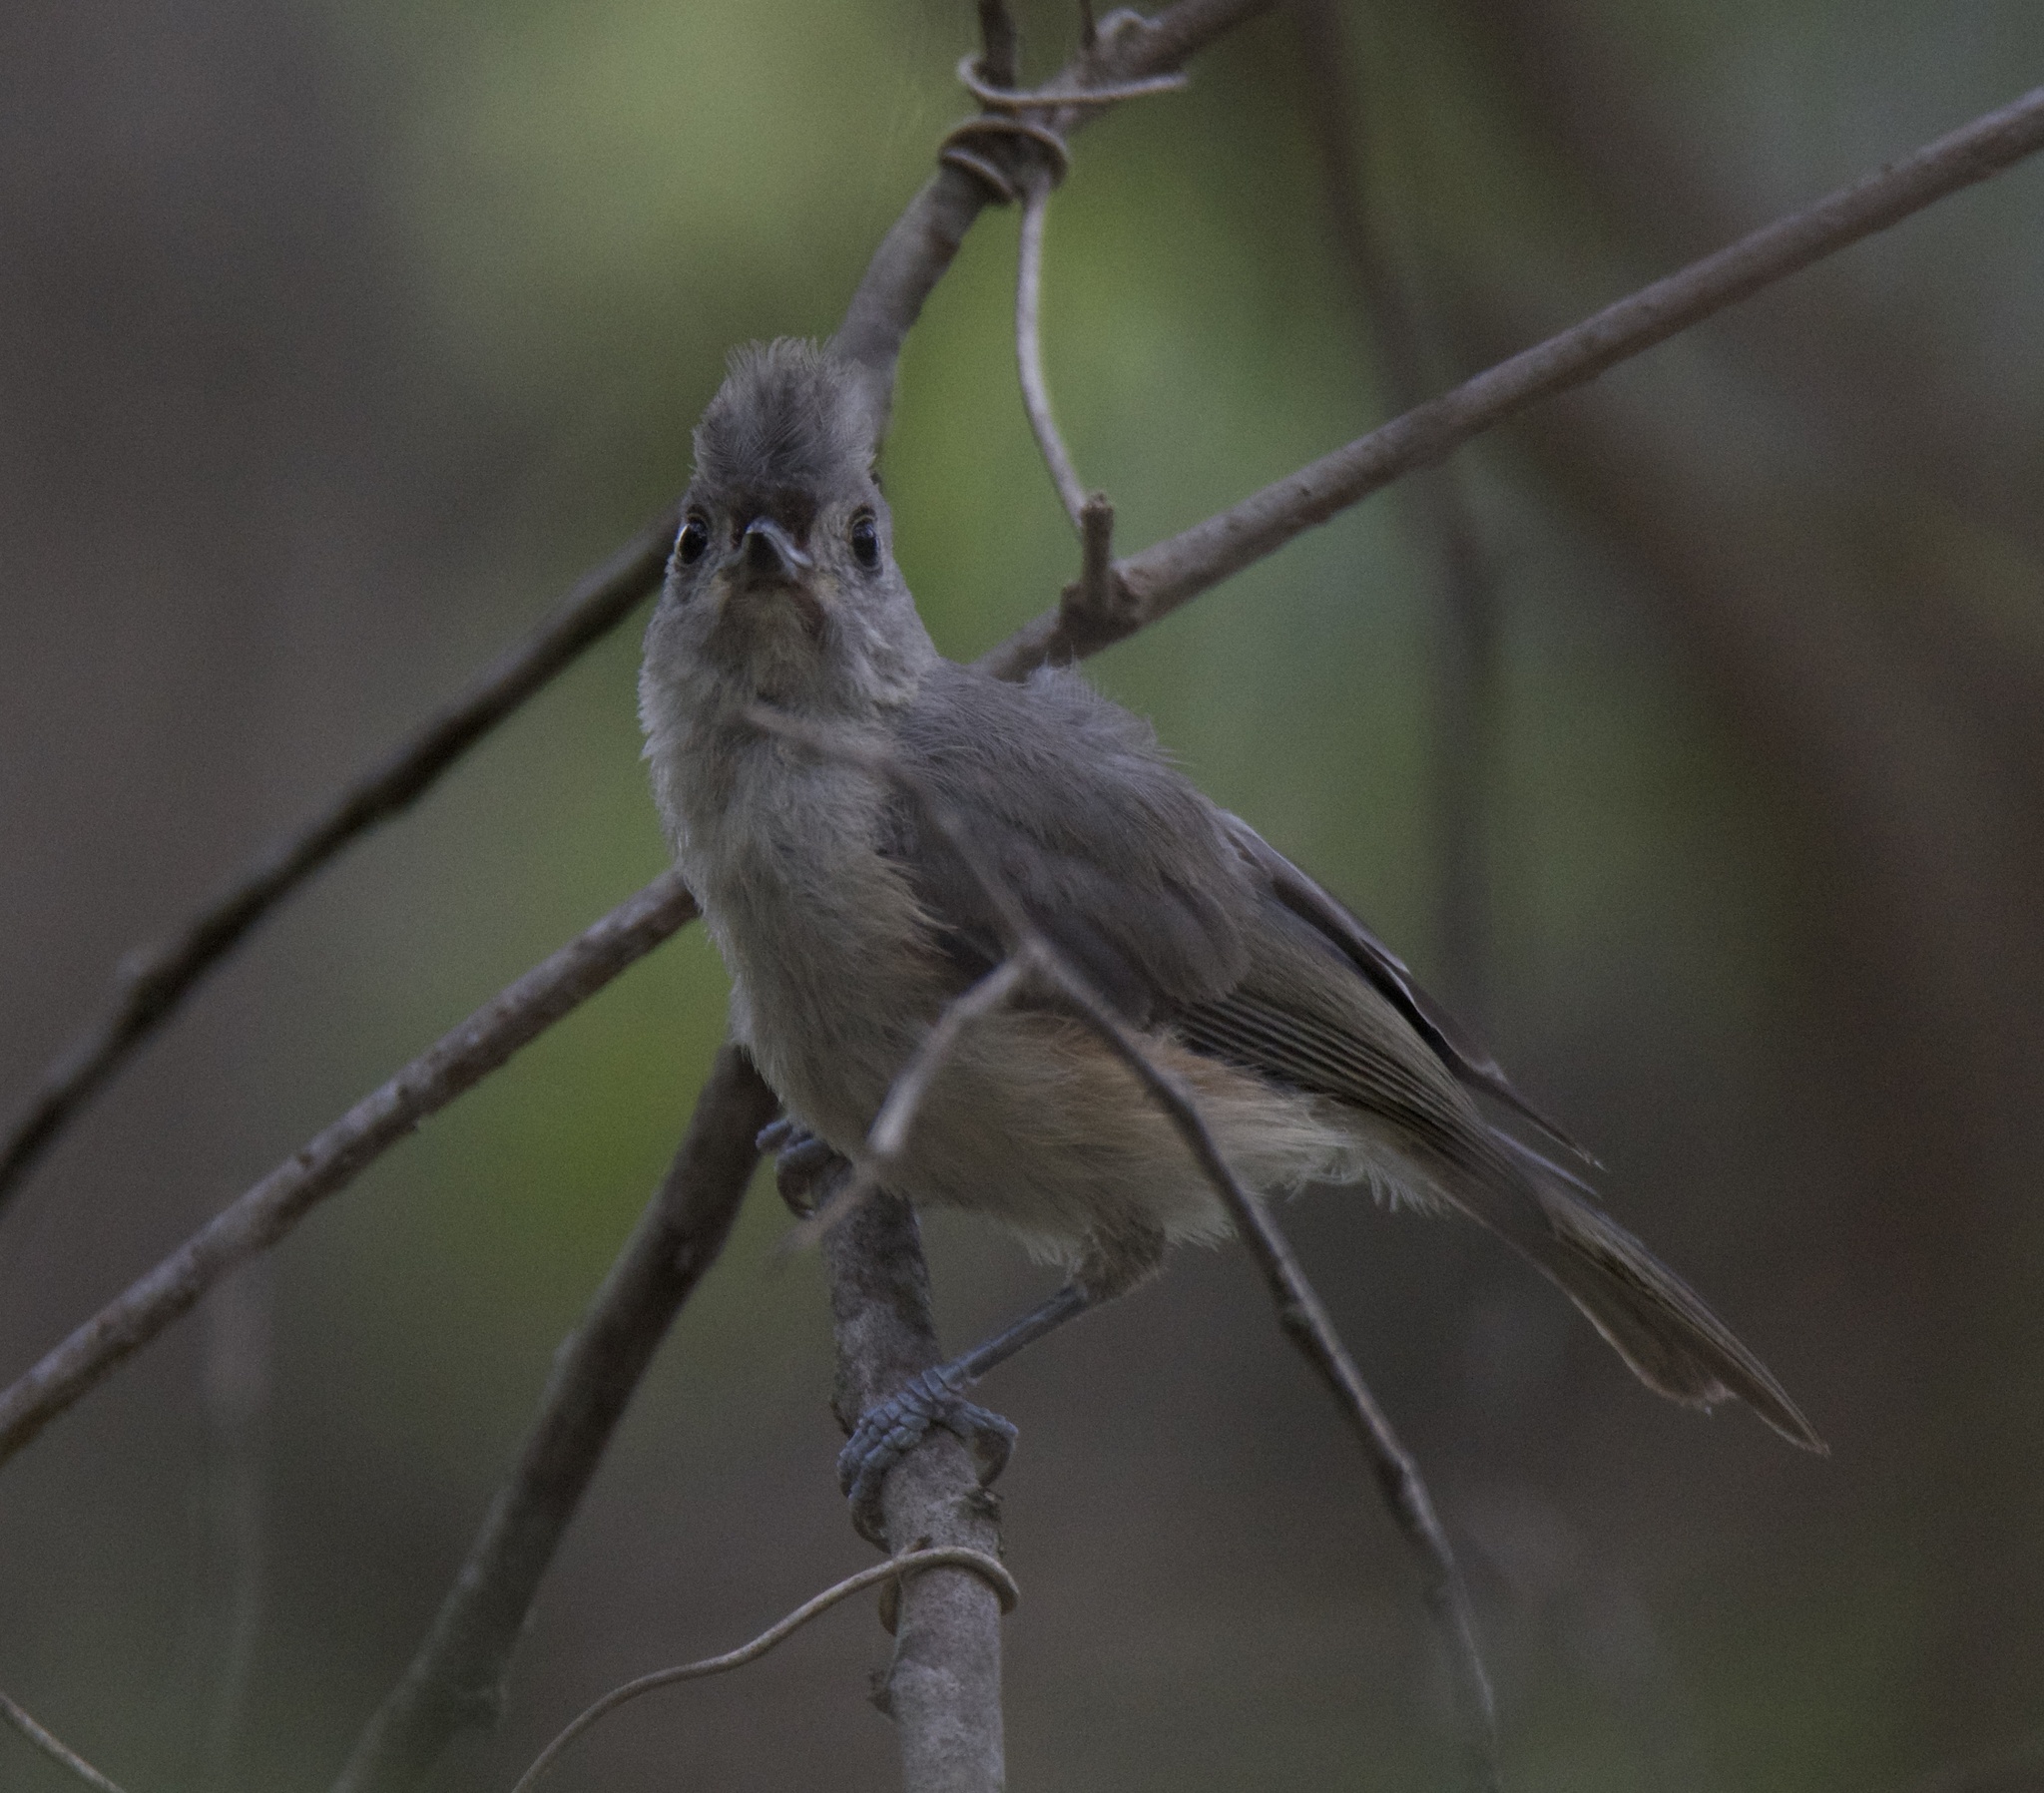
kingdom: Animalia
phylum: Chordata
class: Aves
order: Passeriformes
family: Paridae
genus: Baeolophus
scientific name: Baeolophus bicolor
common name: Tufted titmouse
